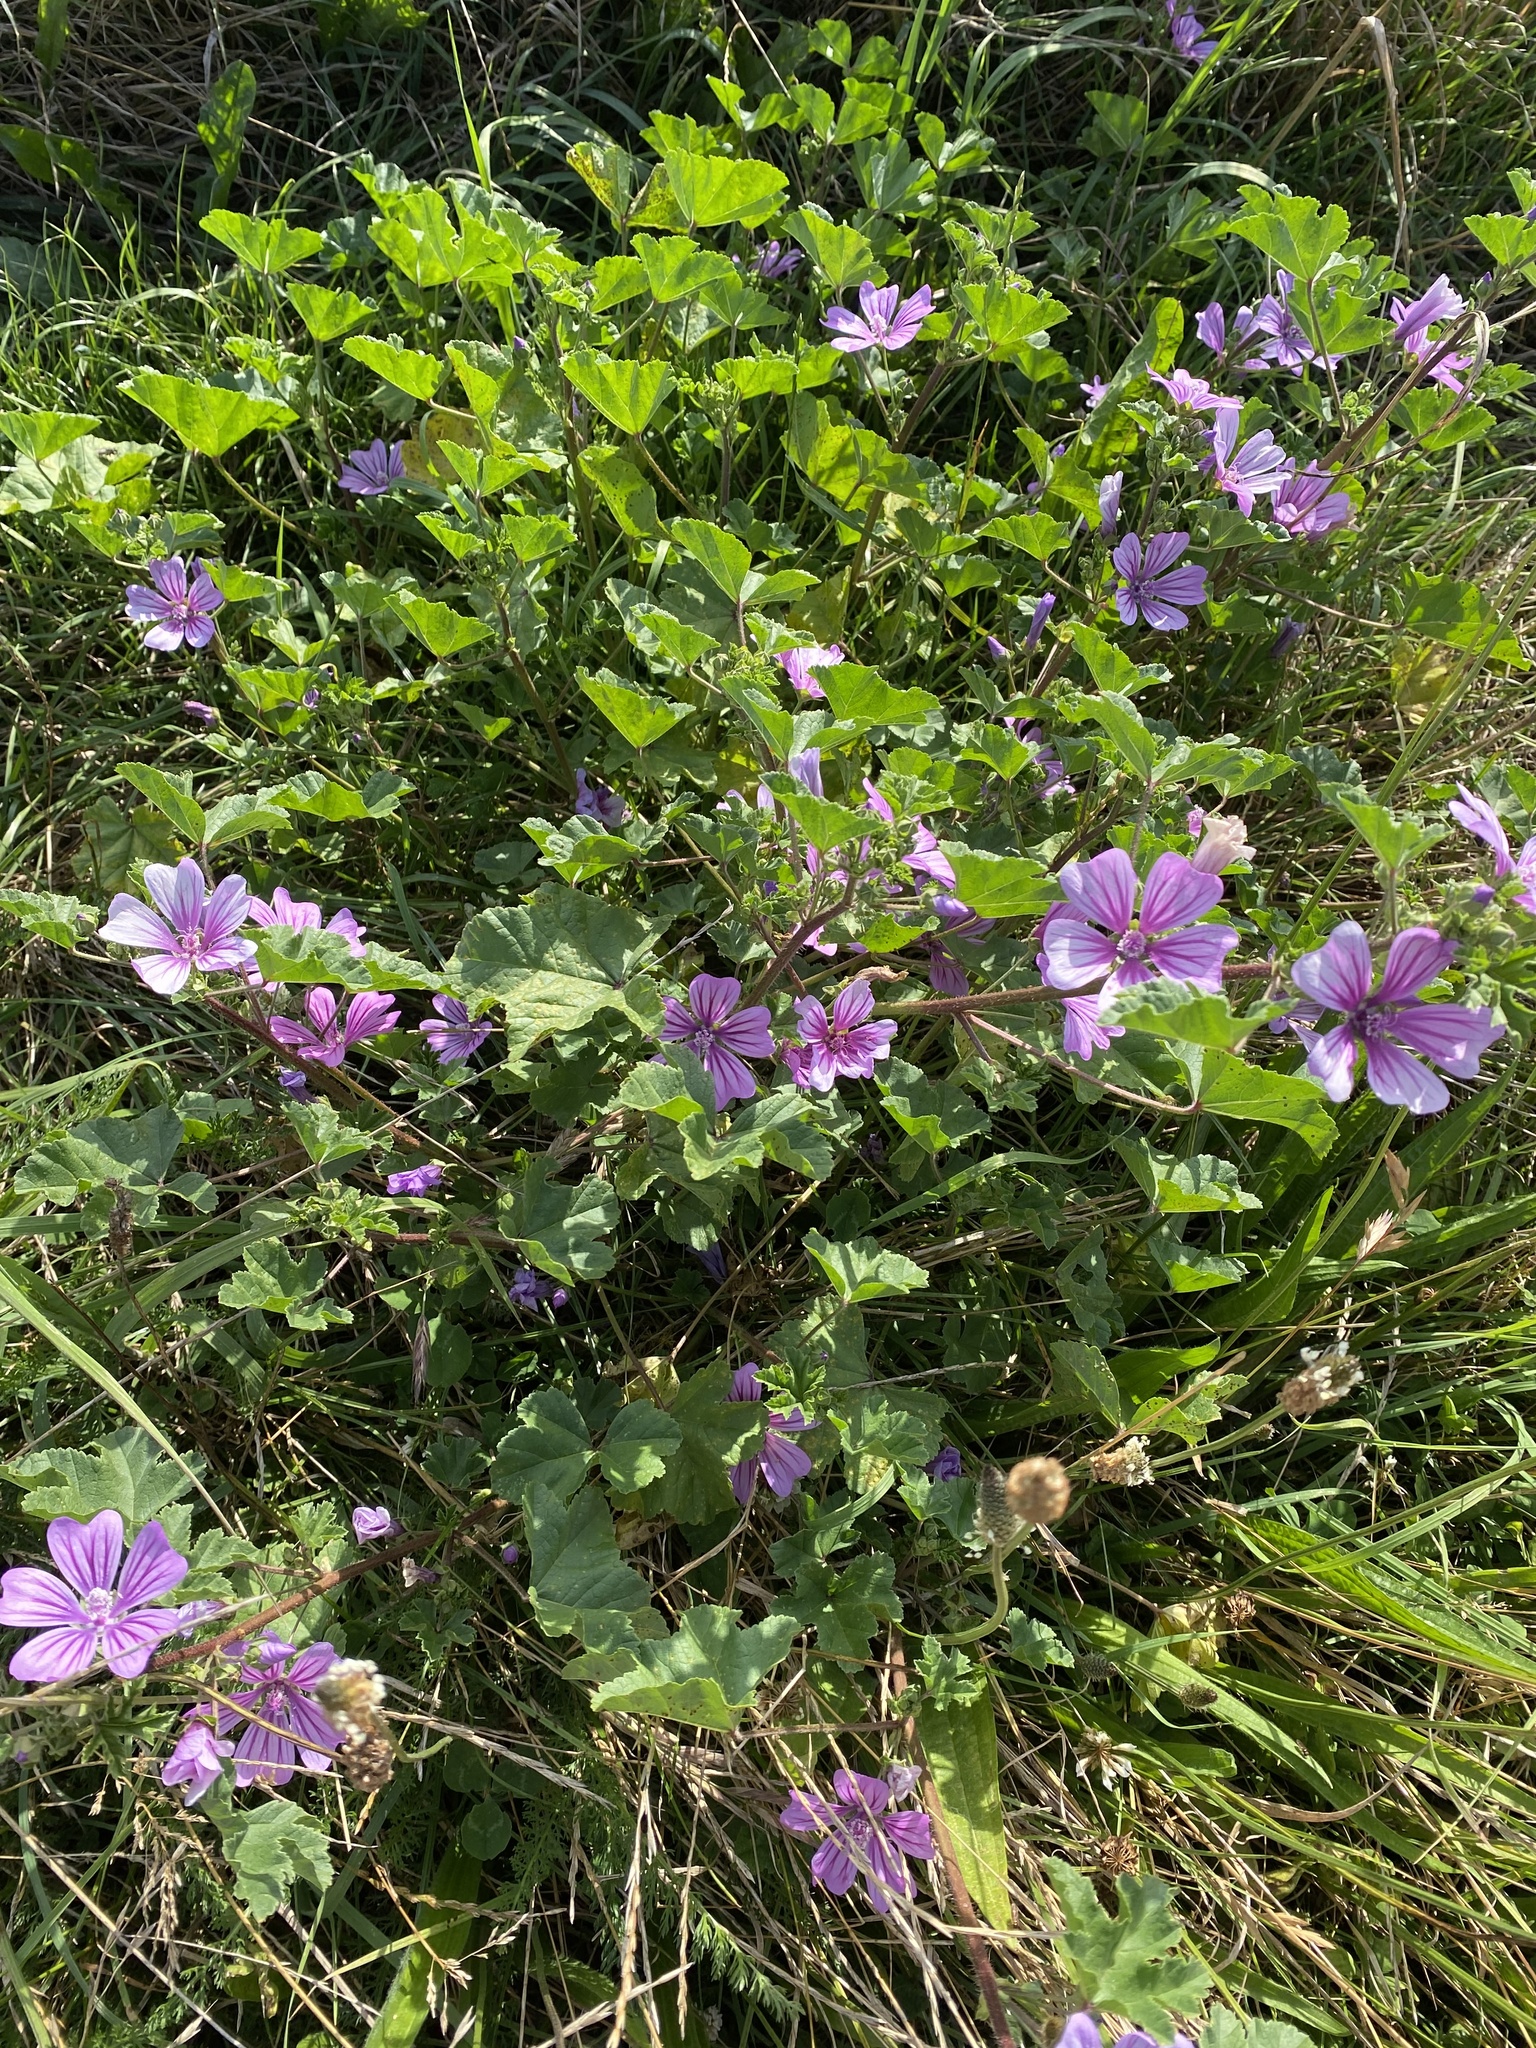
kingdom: Plantae
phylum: Tracheophyta
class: Magnoliopsida
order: Malvales
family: Malvaceae
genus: Malva
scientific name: Malva sylvestris
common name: Common mallow
